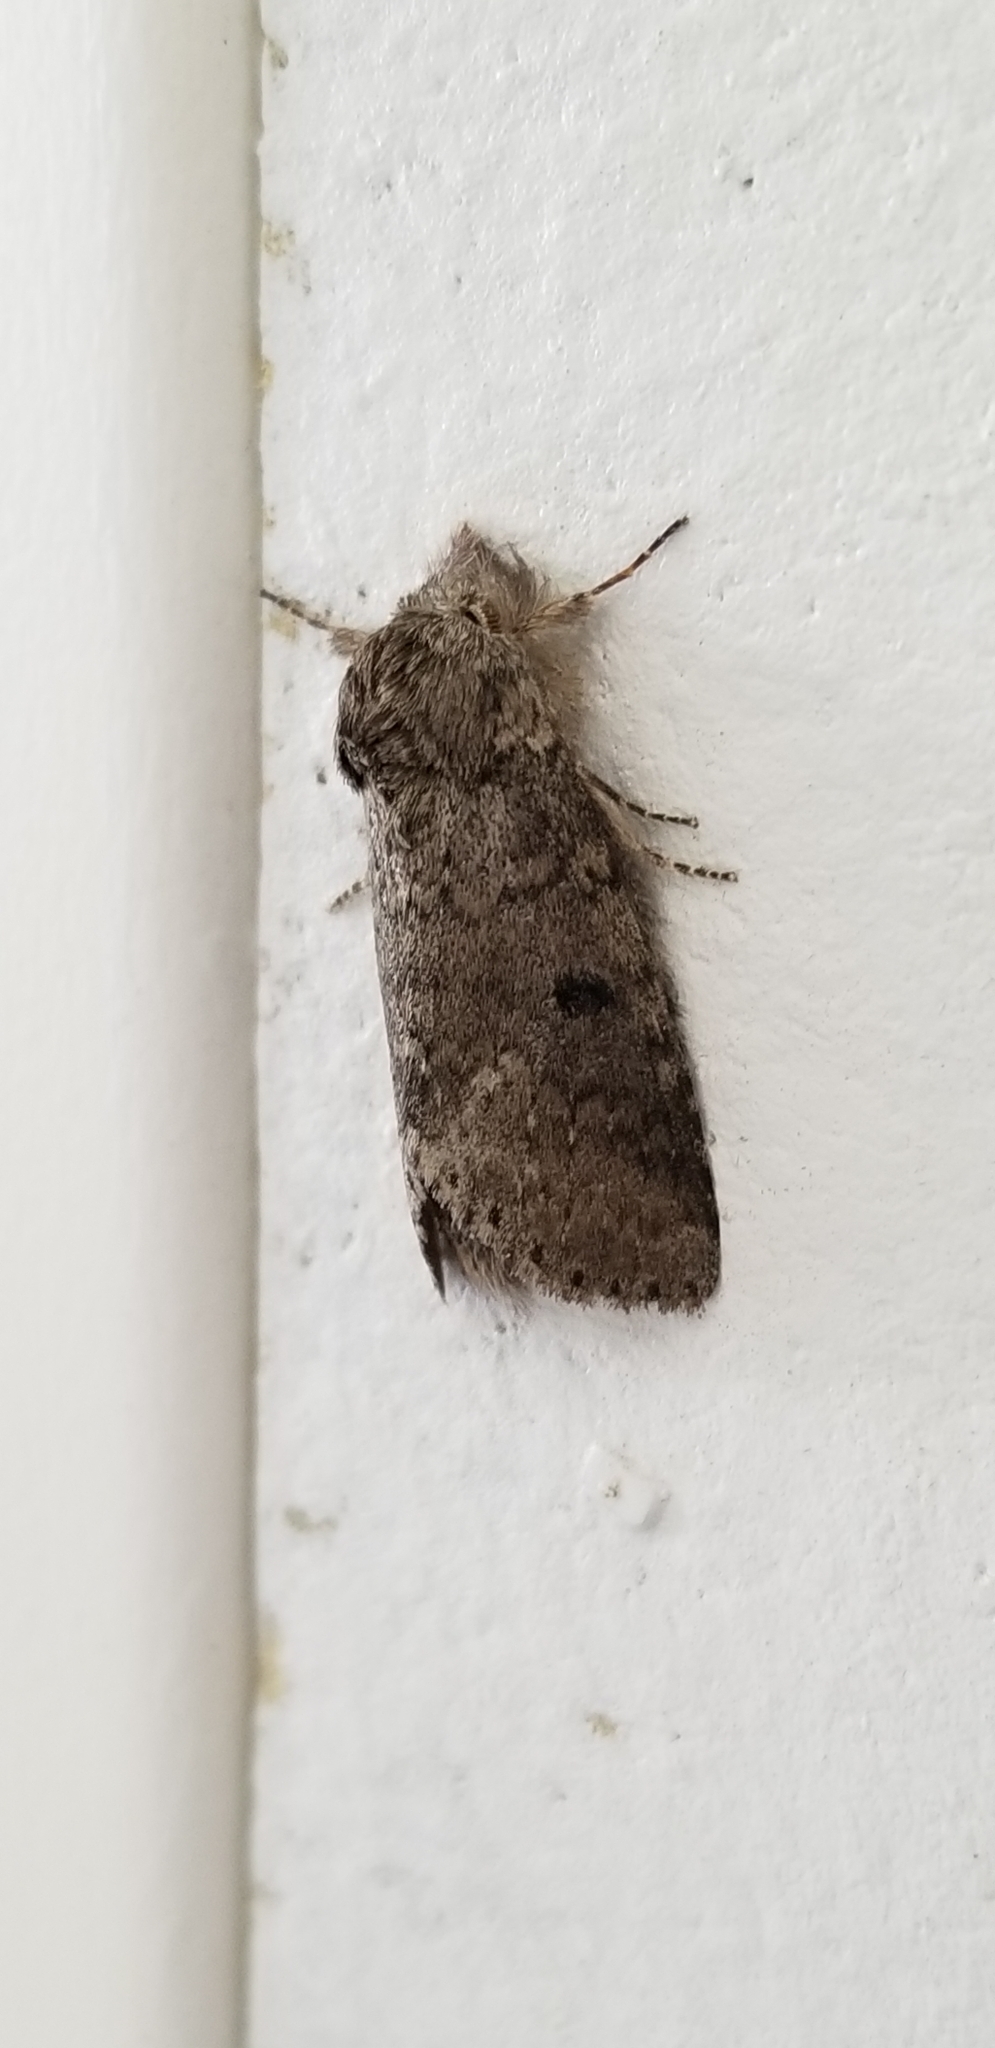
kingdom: Animalia
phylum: Arthropoda
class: Insecta
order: Lepidoptera
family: Notodontidae
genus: Lochmaeus
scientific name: Lochmaeus manteo
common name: Variable oakleaf caterpillar moth
